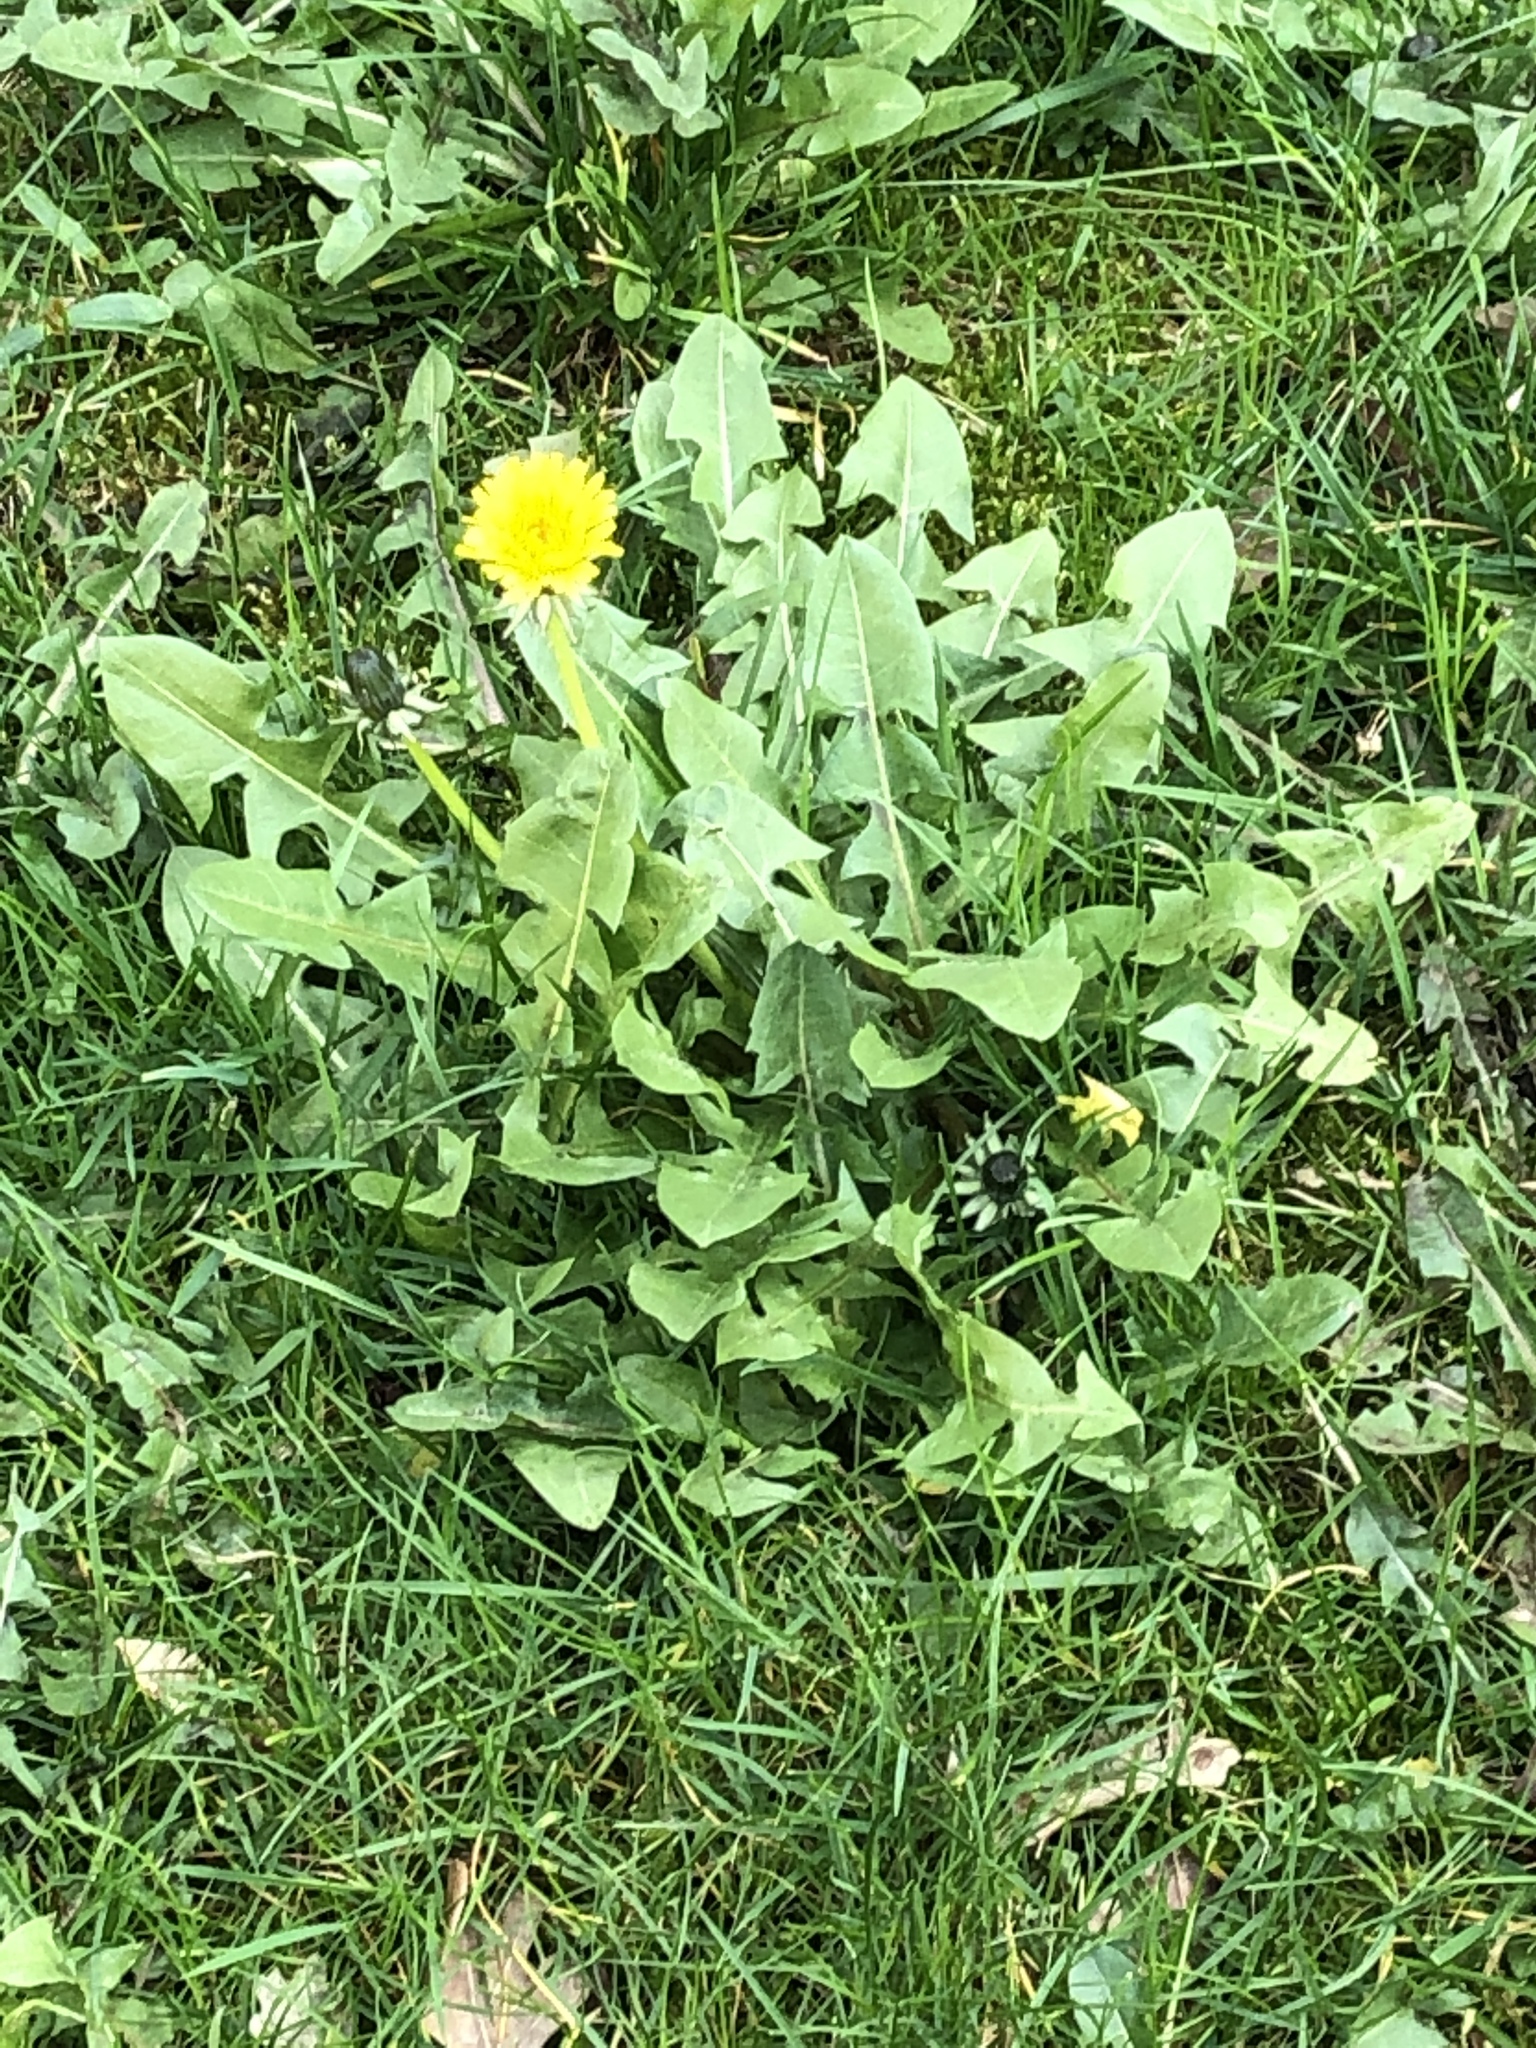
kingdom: Plantae
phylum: Tracheophyta
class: Magnoliopsida
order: Asterales
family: Asteraceae
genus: Taraxacum
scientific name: Taraxacum officinale
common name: Common dandelion
